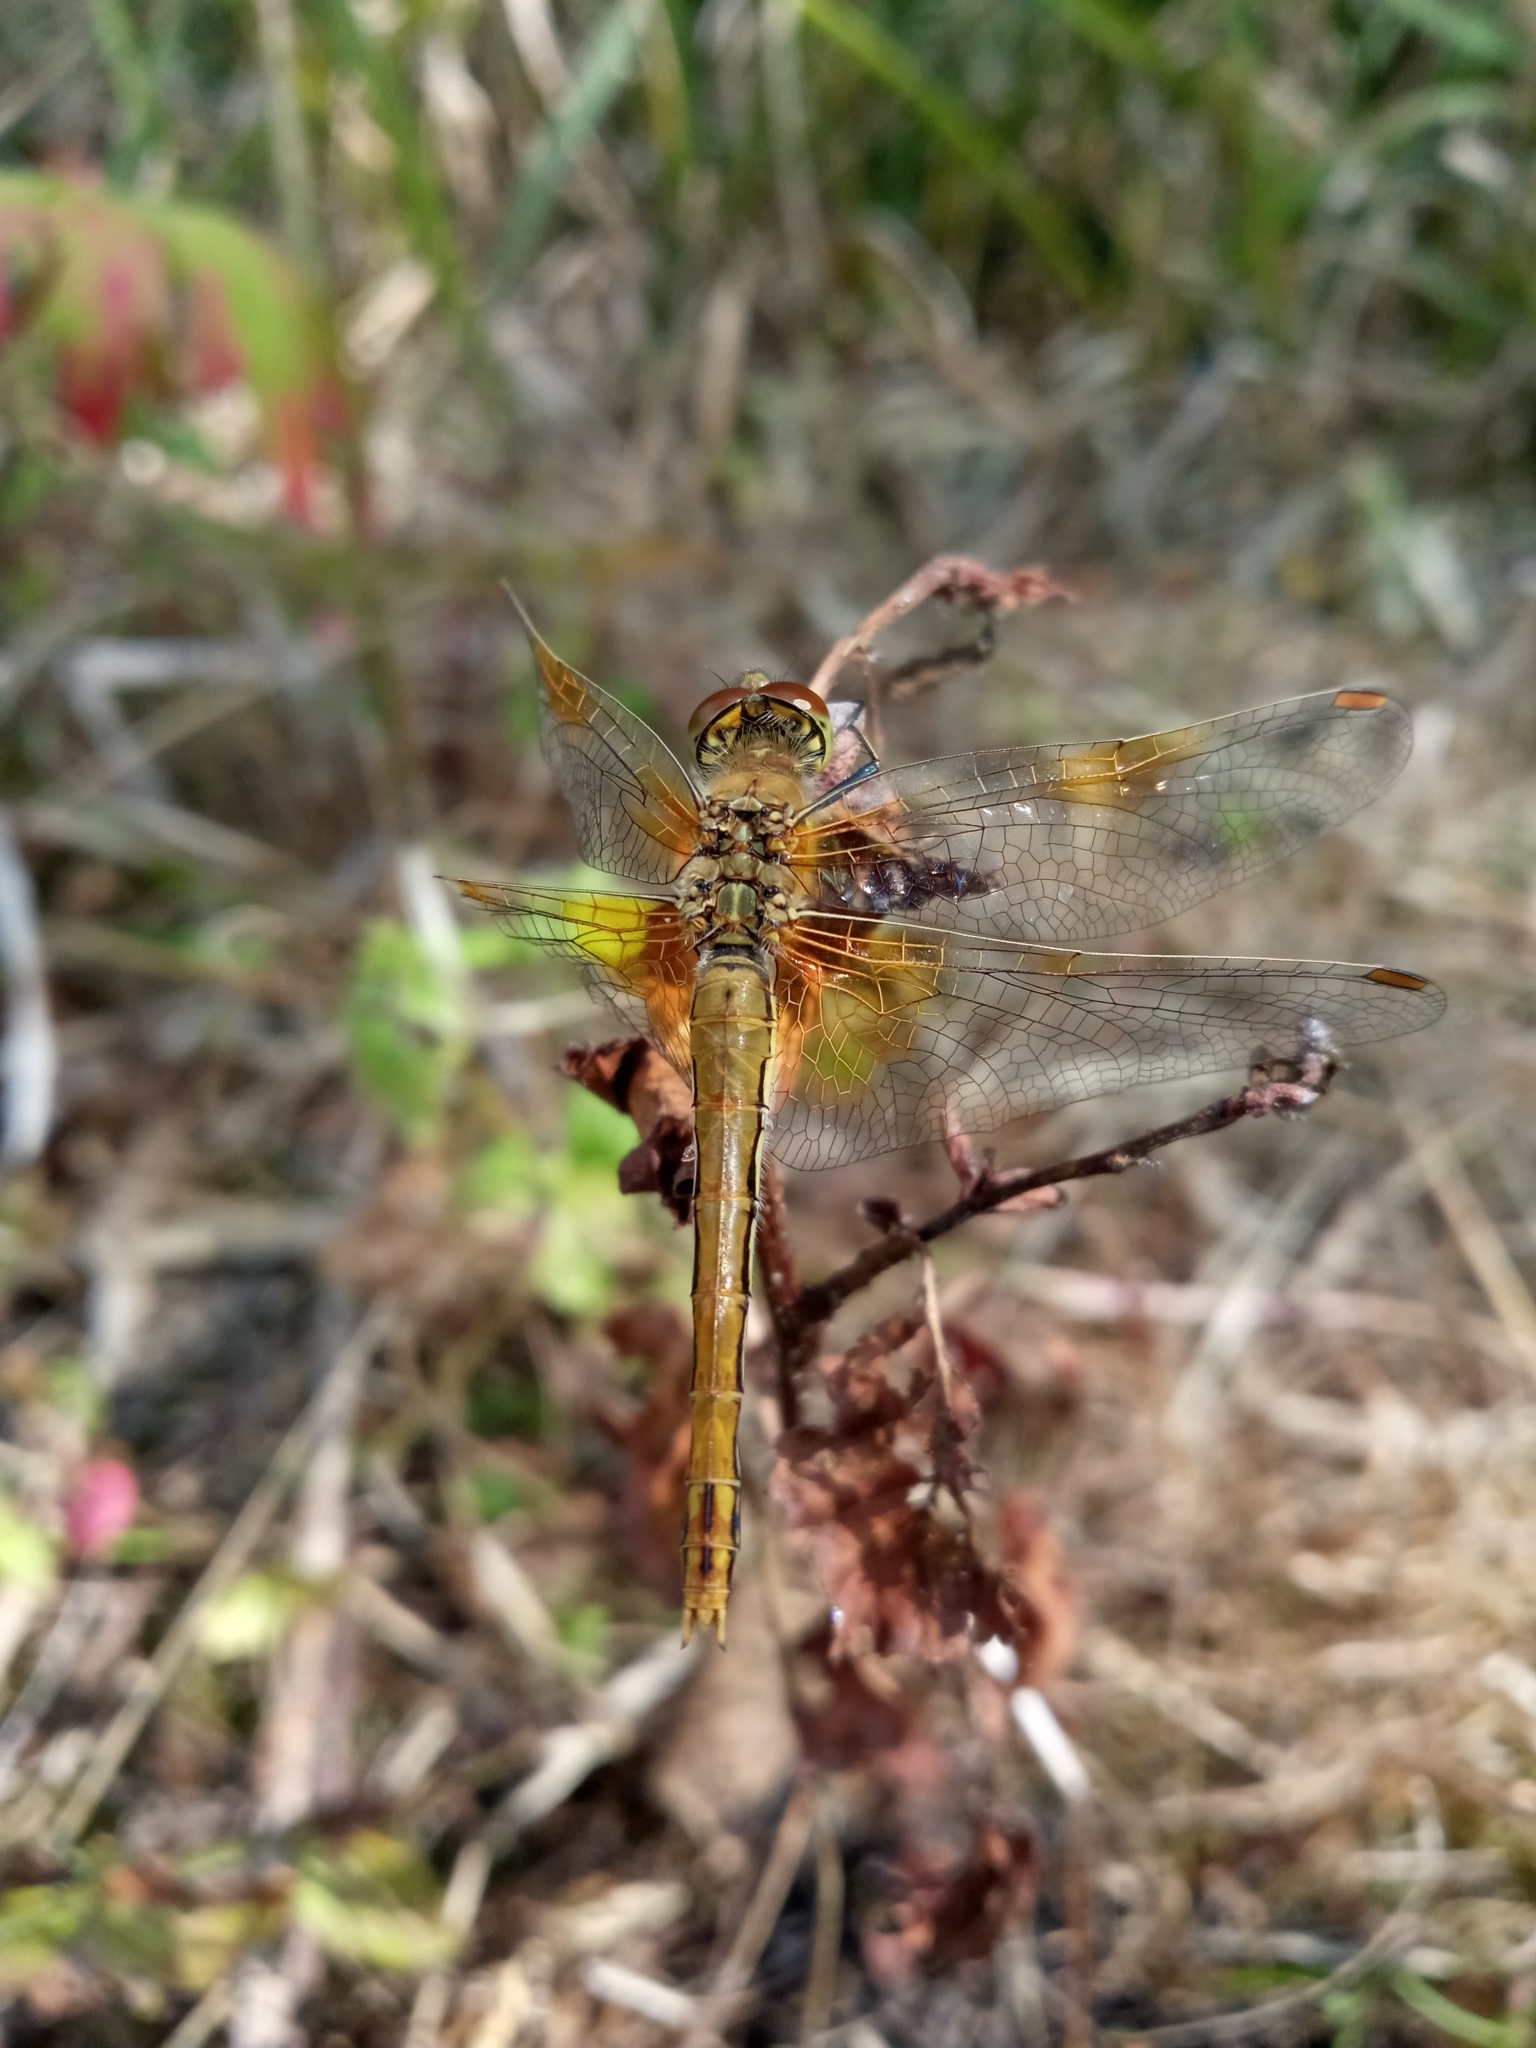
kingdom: Animalia
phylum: Arthropoda
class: Insecta
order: Odonata
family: Libellulidae
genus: Sympetrum
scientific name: Sympetrum flaveolum
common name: Yellow-winged darter
